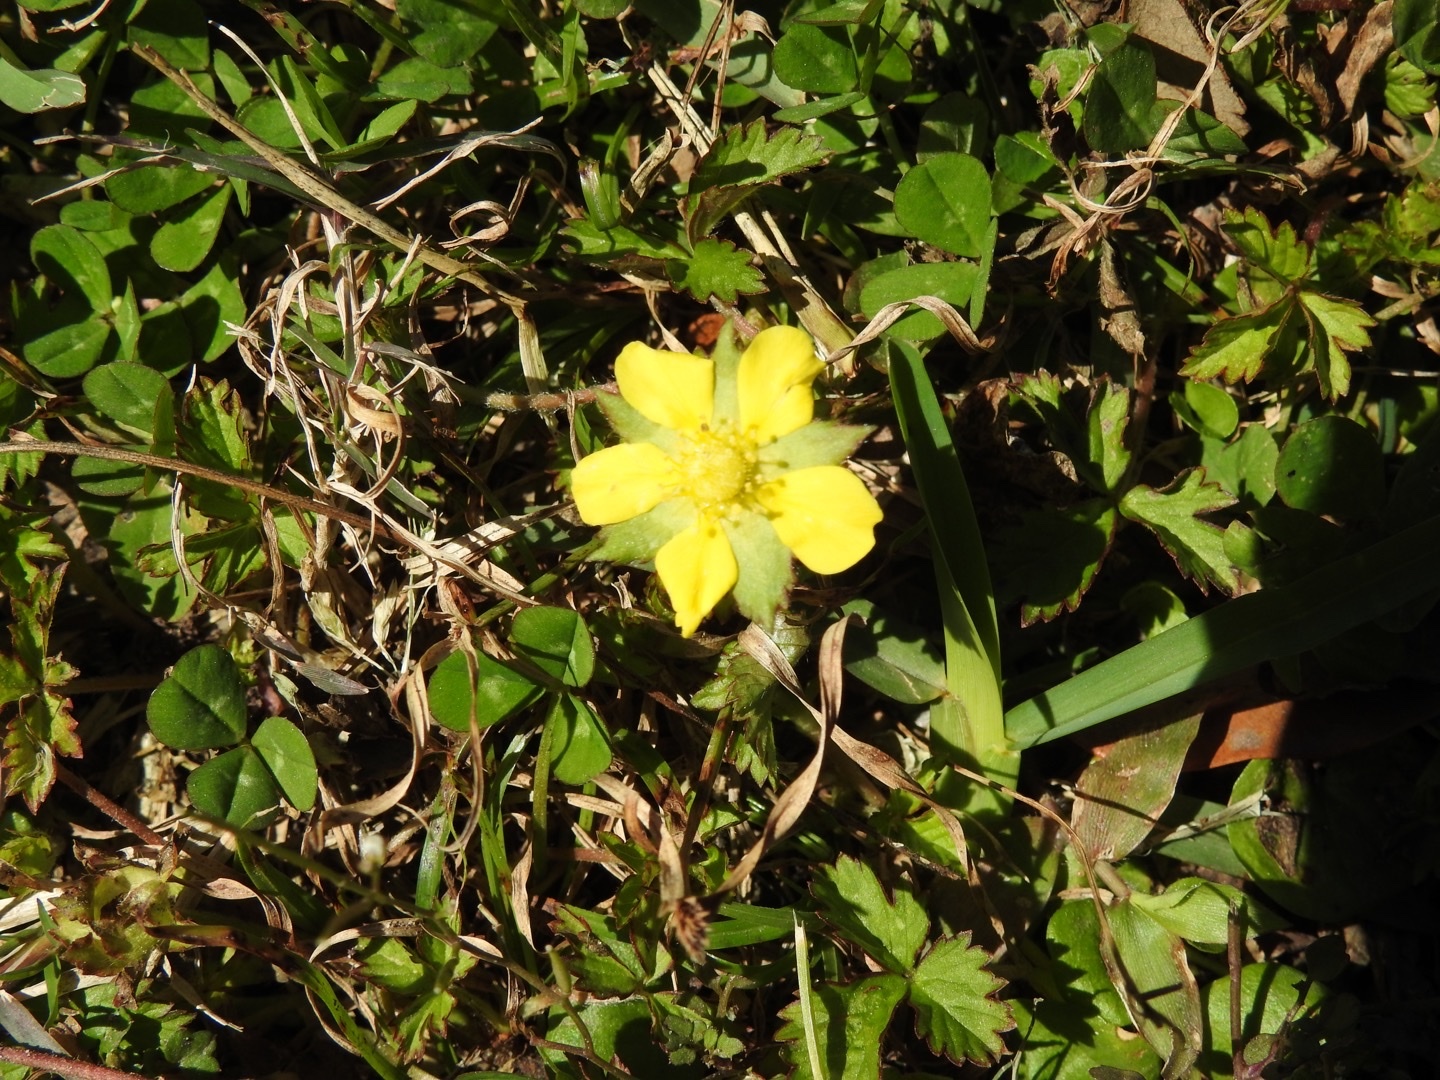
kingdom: Plantae
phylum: Tracheophyta
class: Magnoliopsida
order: Rosales
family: Rosaceae
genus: Potentilla
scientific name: Potentilla indica
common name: Yellow-flowered strawberry
